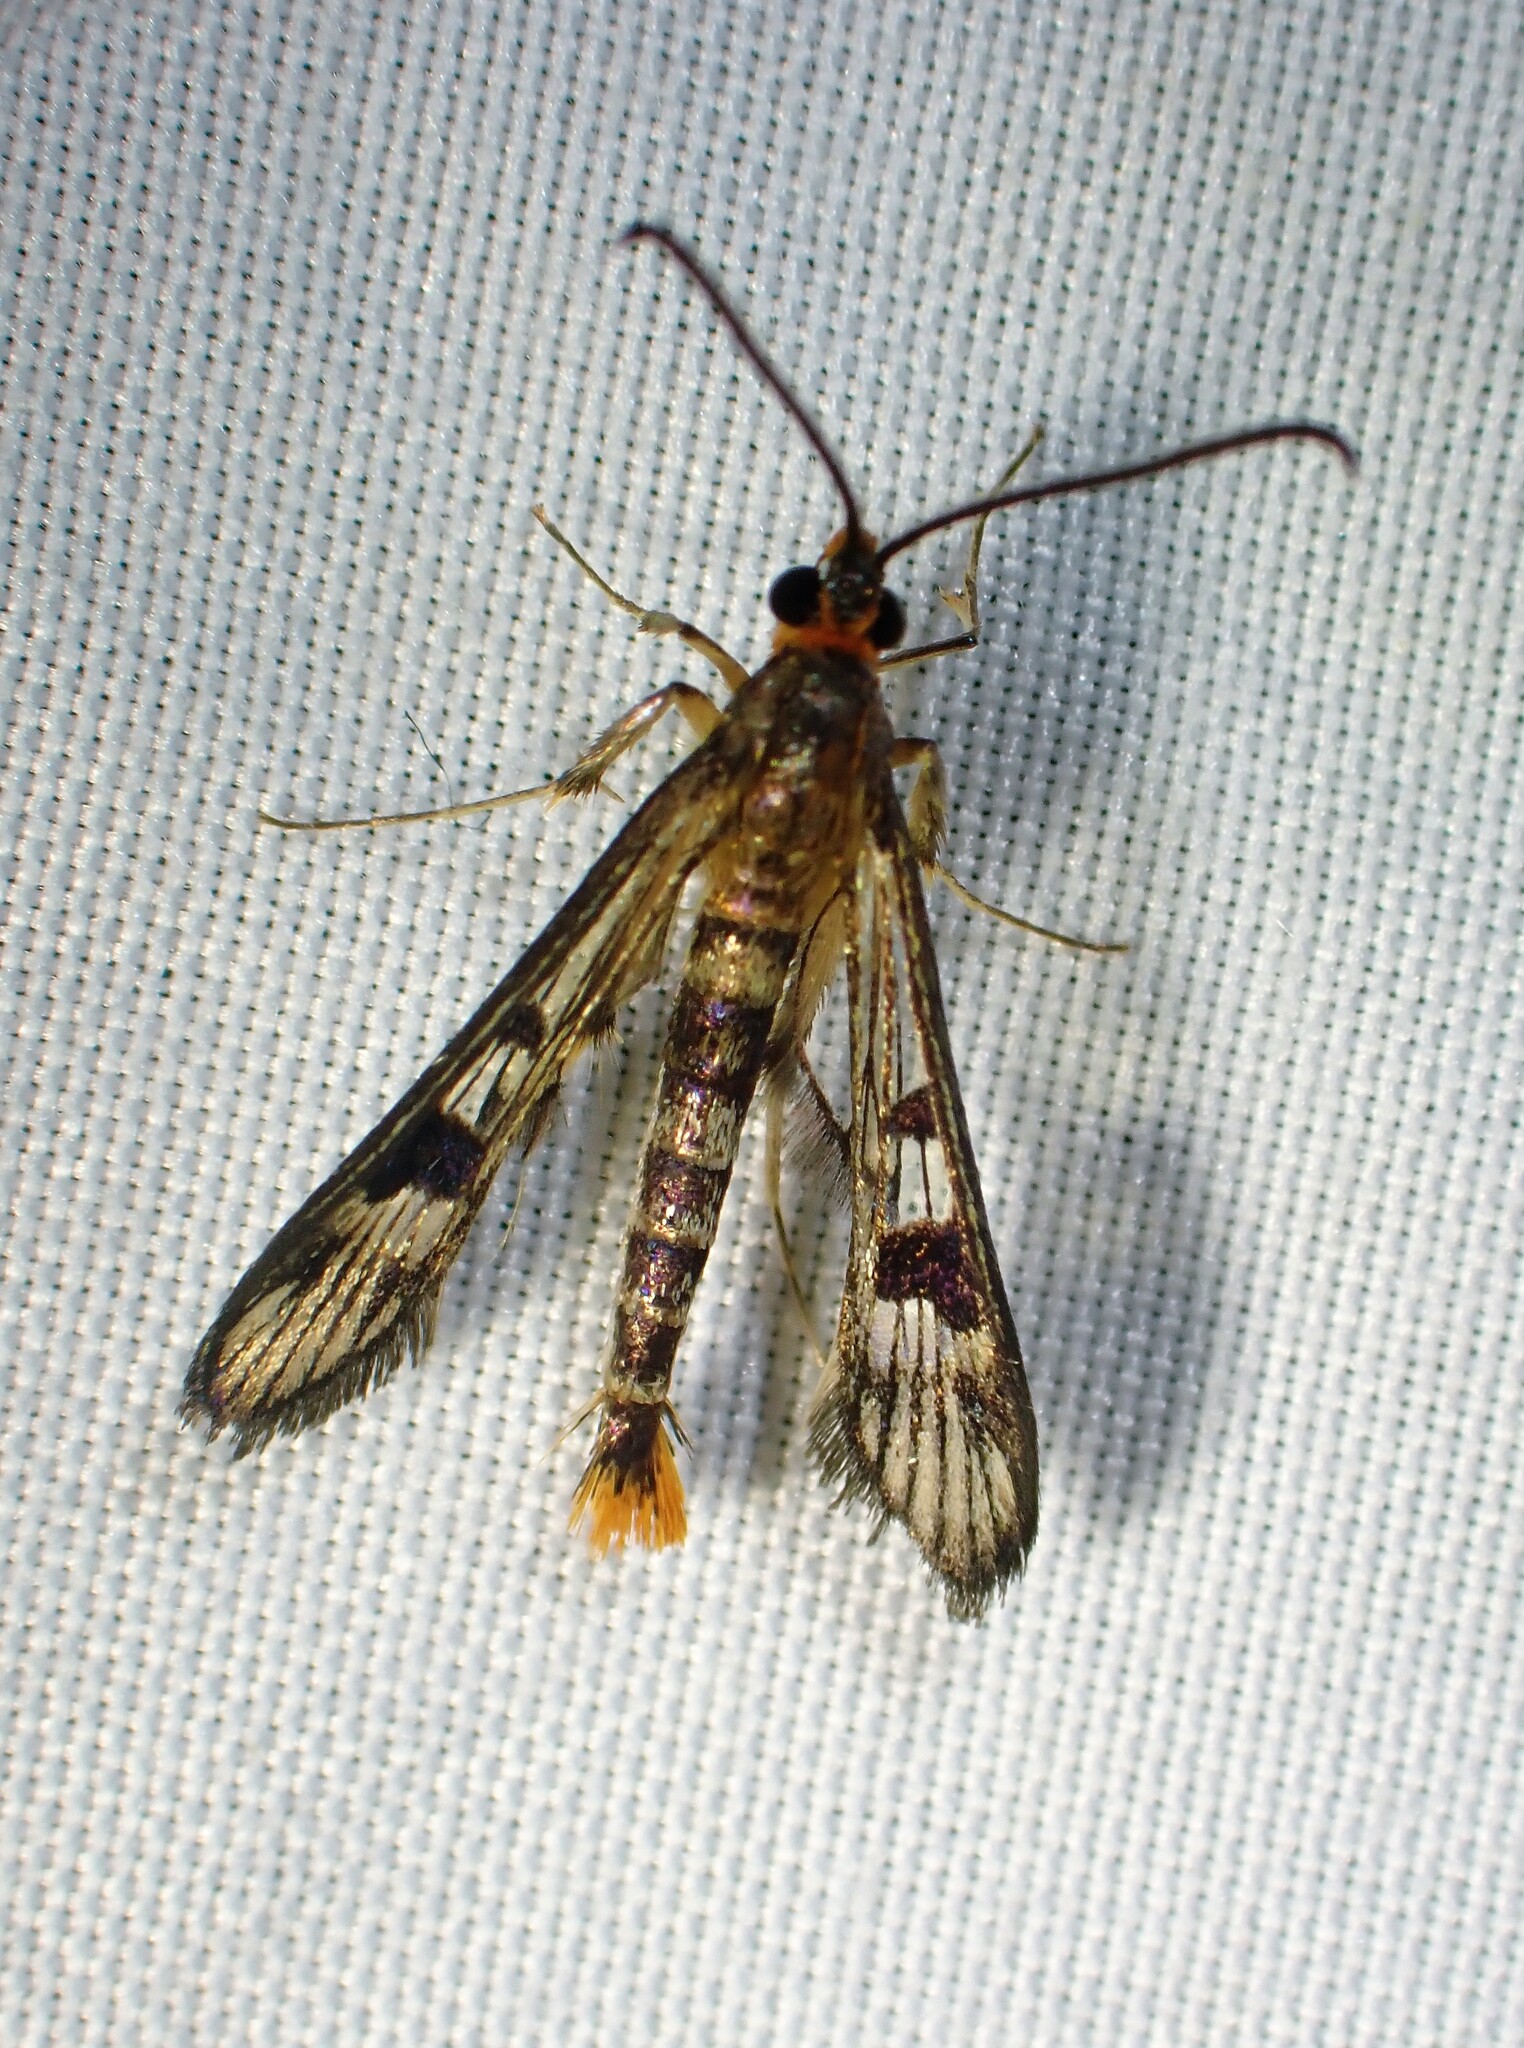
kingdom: Animalia
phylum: Arthropoda
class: Insecta
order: Lepidoptera
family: Sesiidae
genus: Synanthedon
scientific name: Synanthedon acerni
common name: Maple callus borer moth
